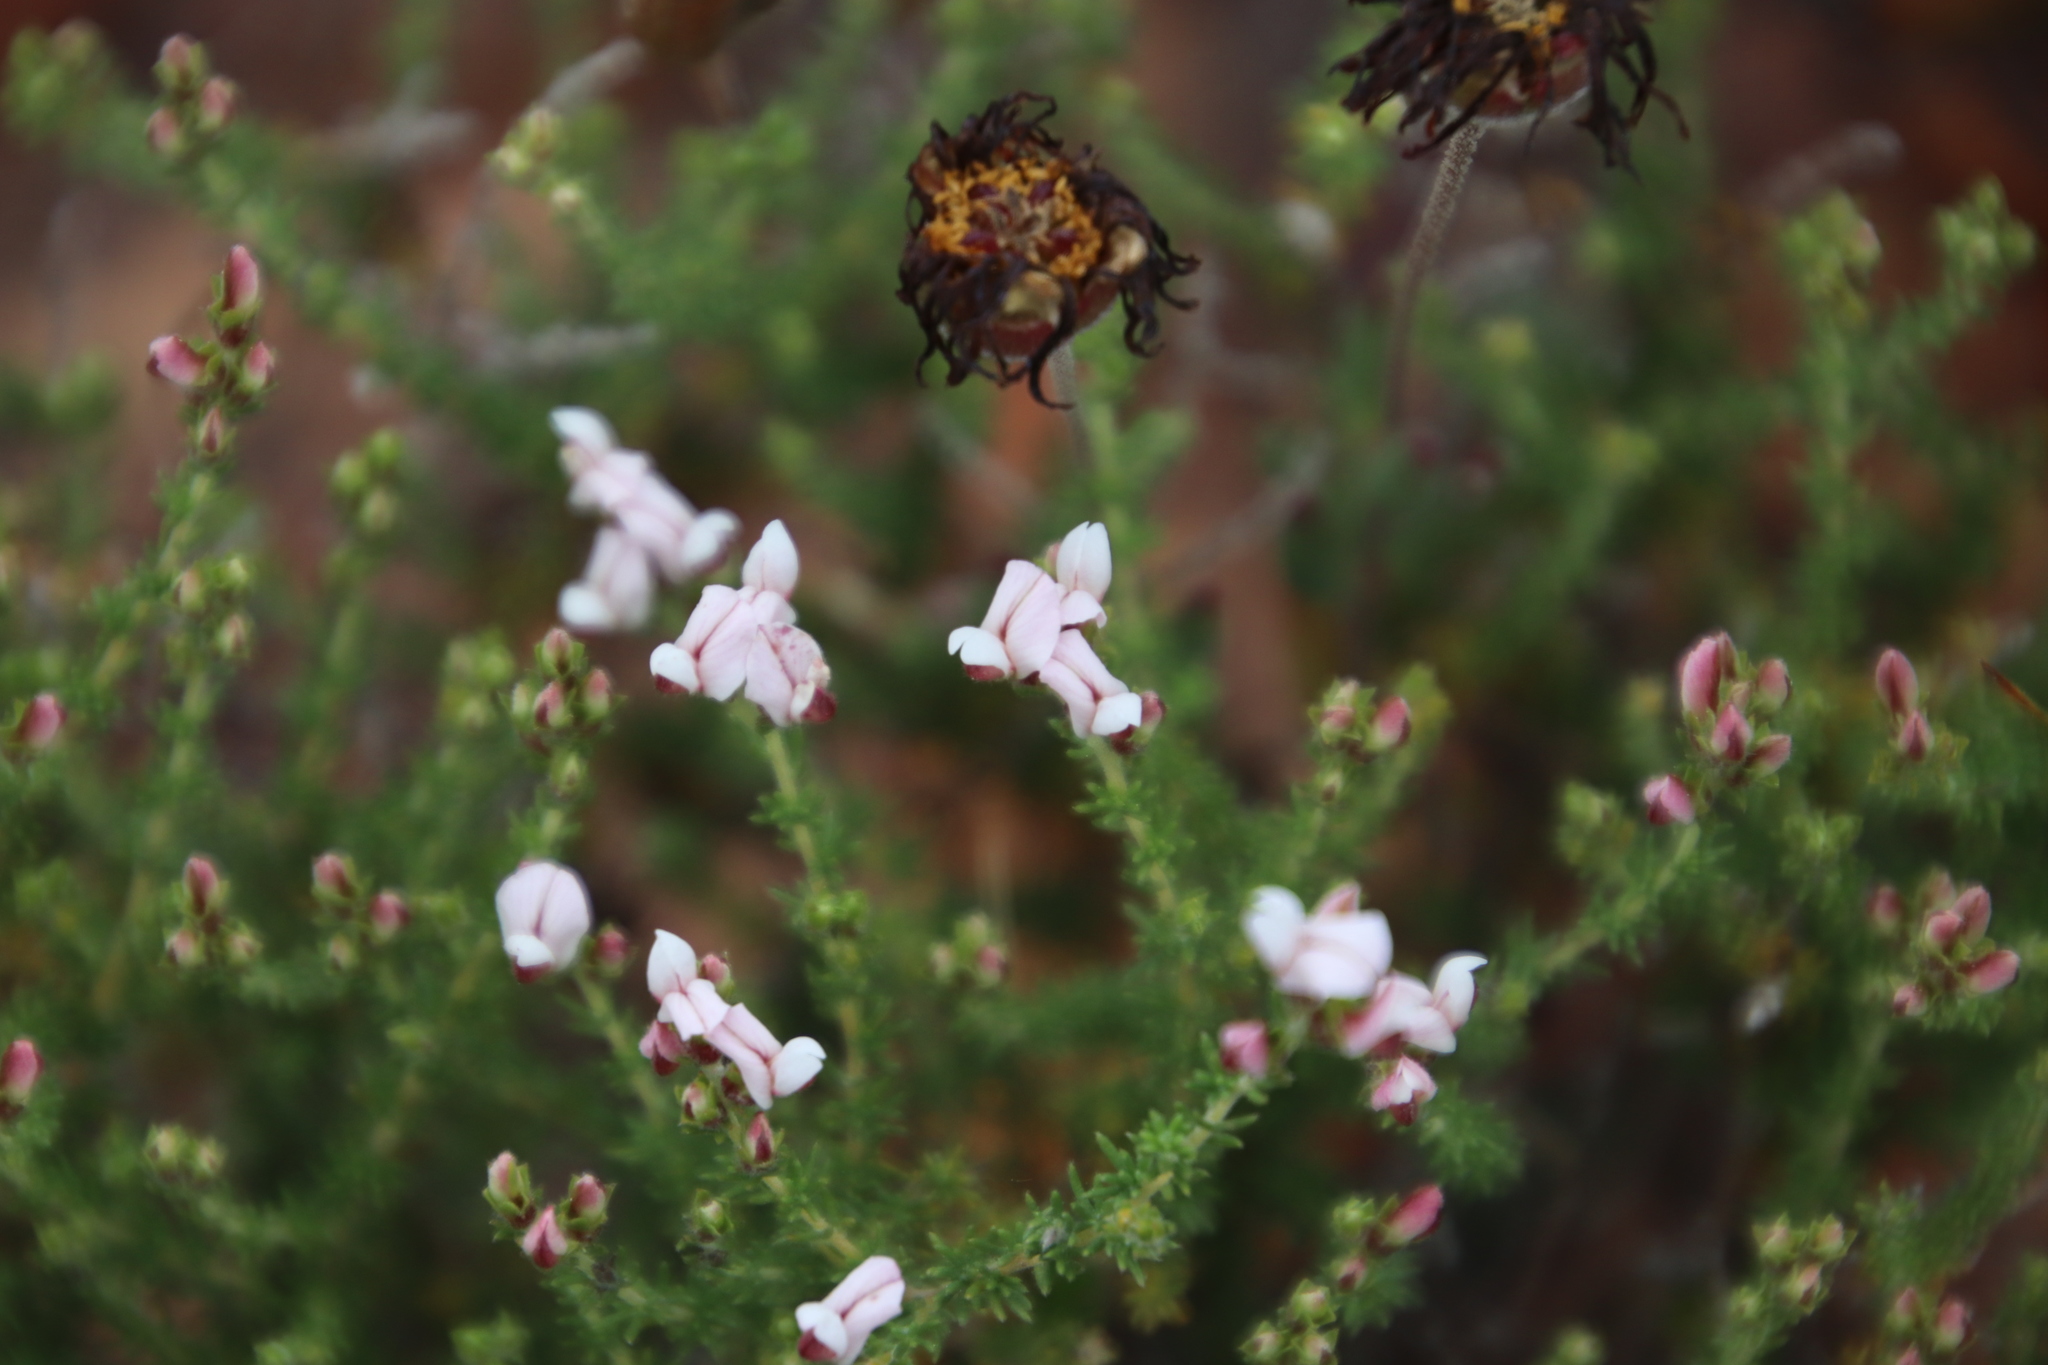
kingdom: Plantae
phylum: Tracheophyta
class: Magnoliopsida
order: Fabales
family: Fabaceae
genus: Aspalathus
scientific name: Aspalathus submissa
